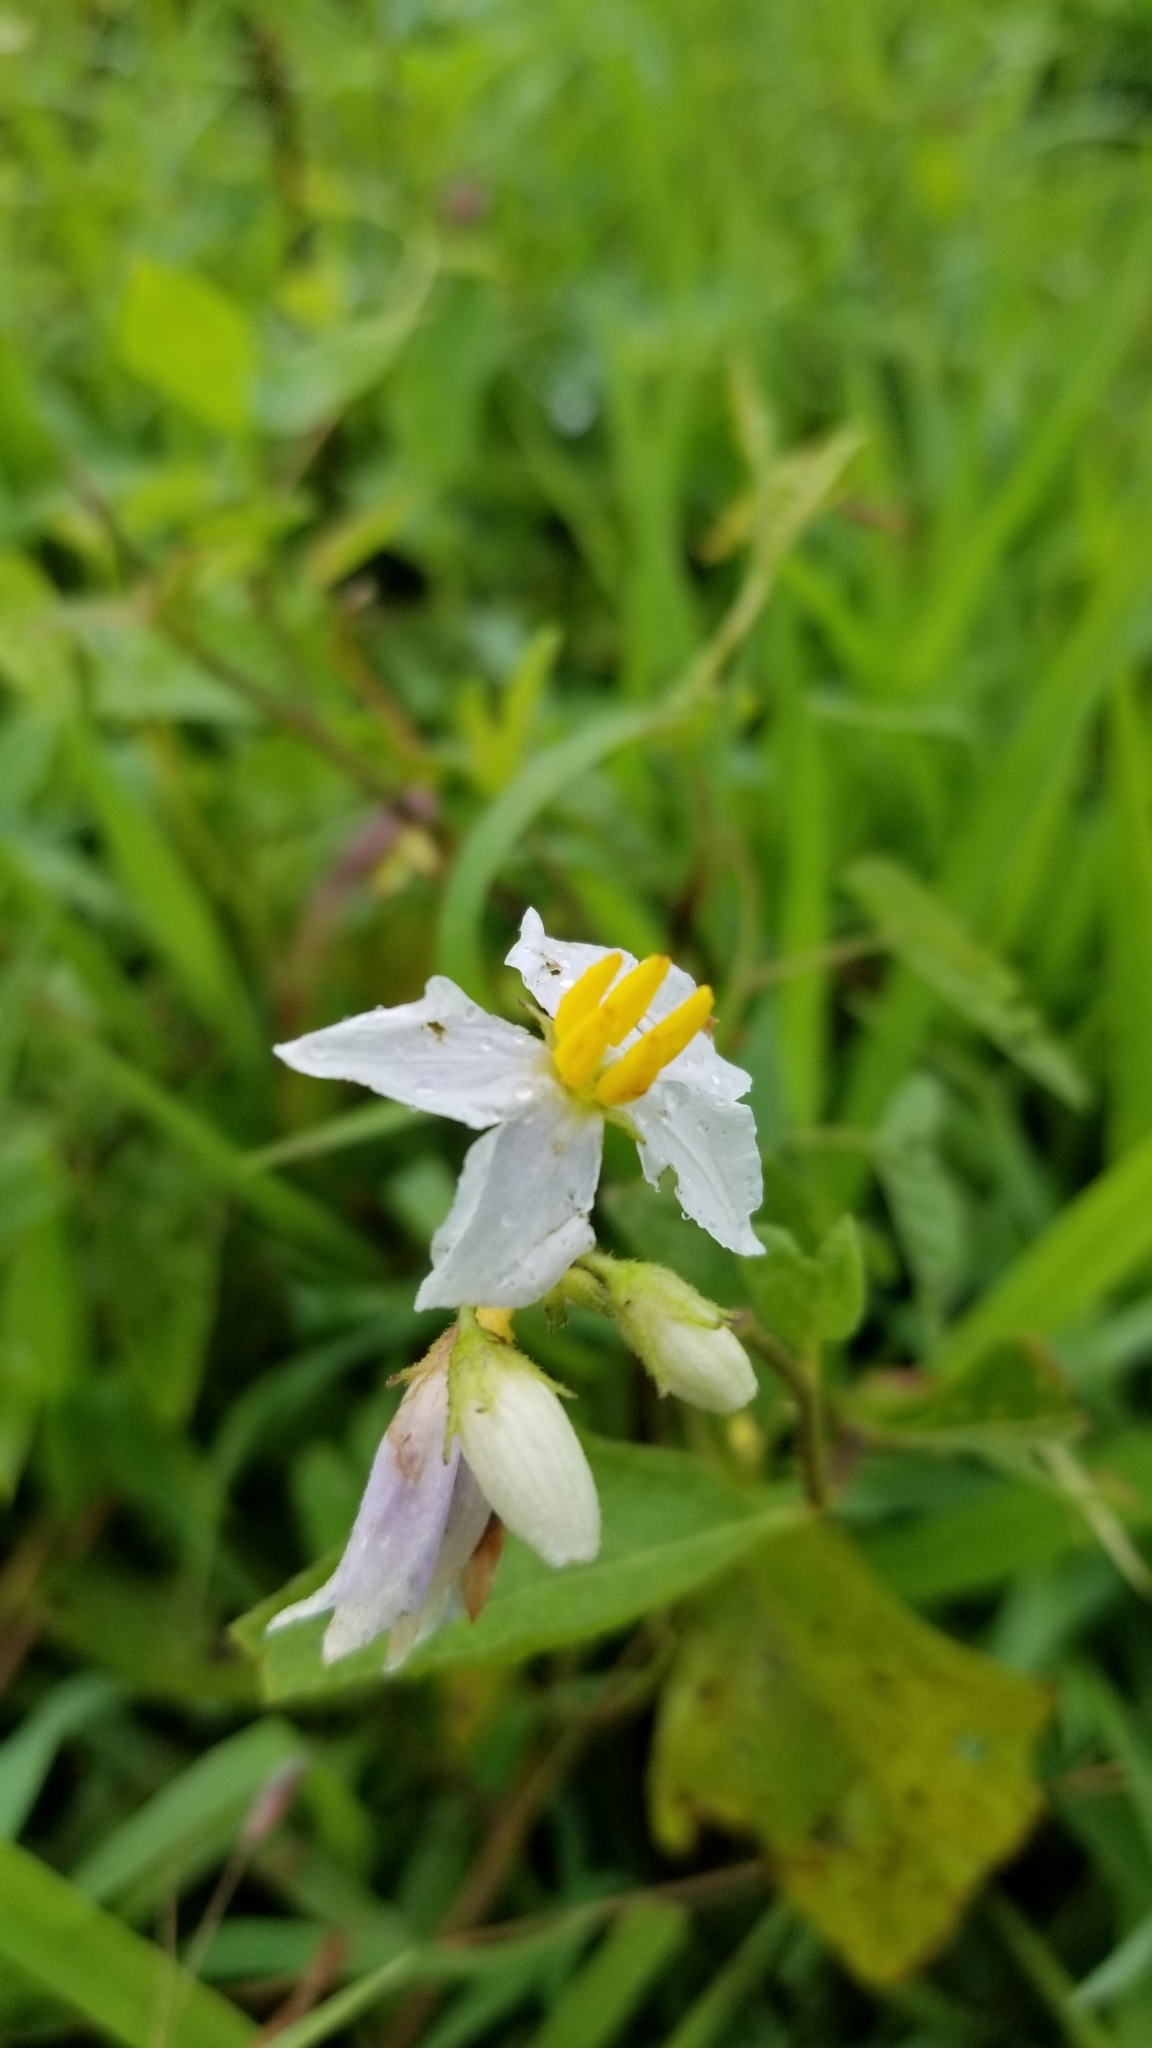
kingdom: Plantae
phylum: Tracheophyta
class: Magnoliopsida
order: Solanales
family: Solanaceae
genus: Solanum
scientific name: Solanum carolinense
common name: Horse-nettle
